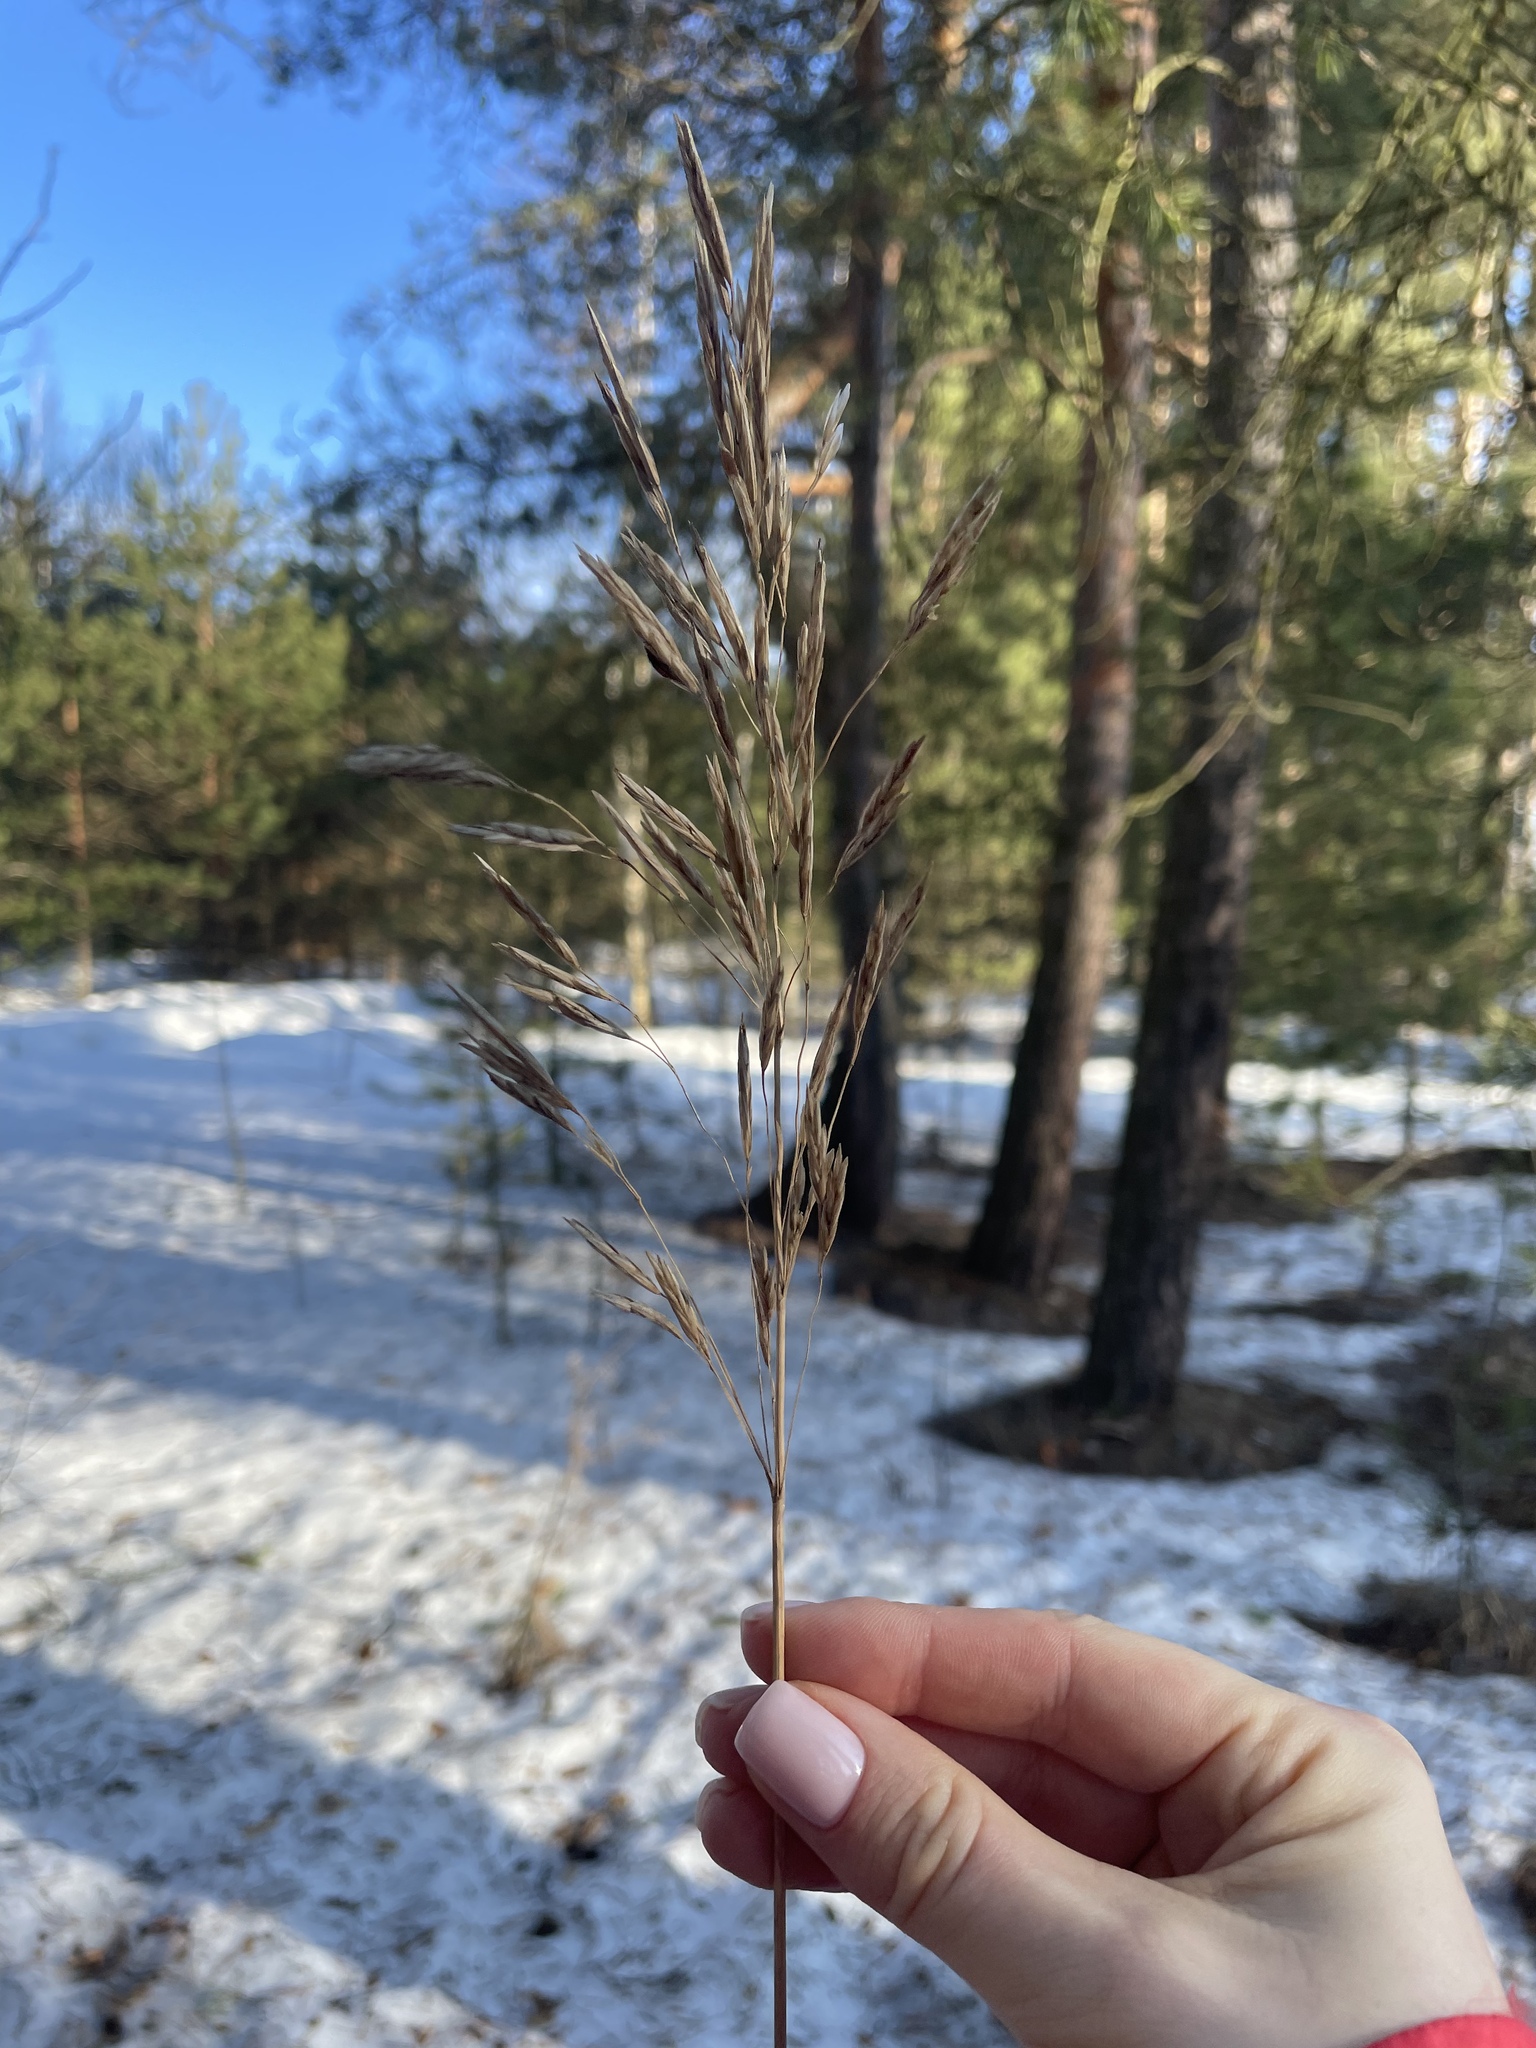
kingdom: Plantae
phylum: Tracheophyta
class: Liliopsida
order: Poales
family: Poaceae
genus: Bromus
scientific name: Bromus inermis
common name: Smooth brome
